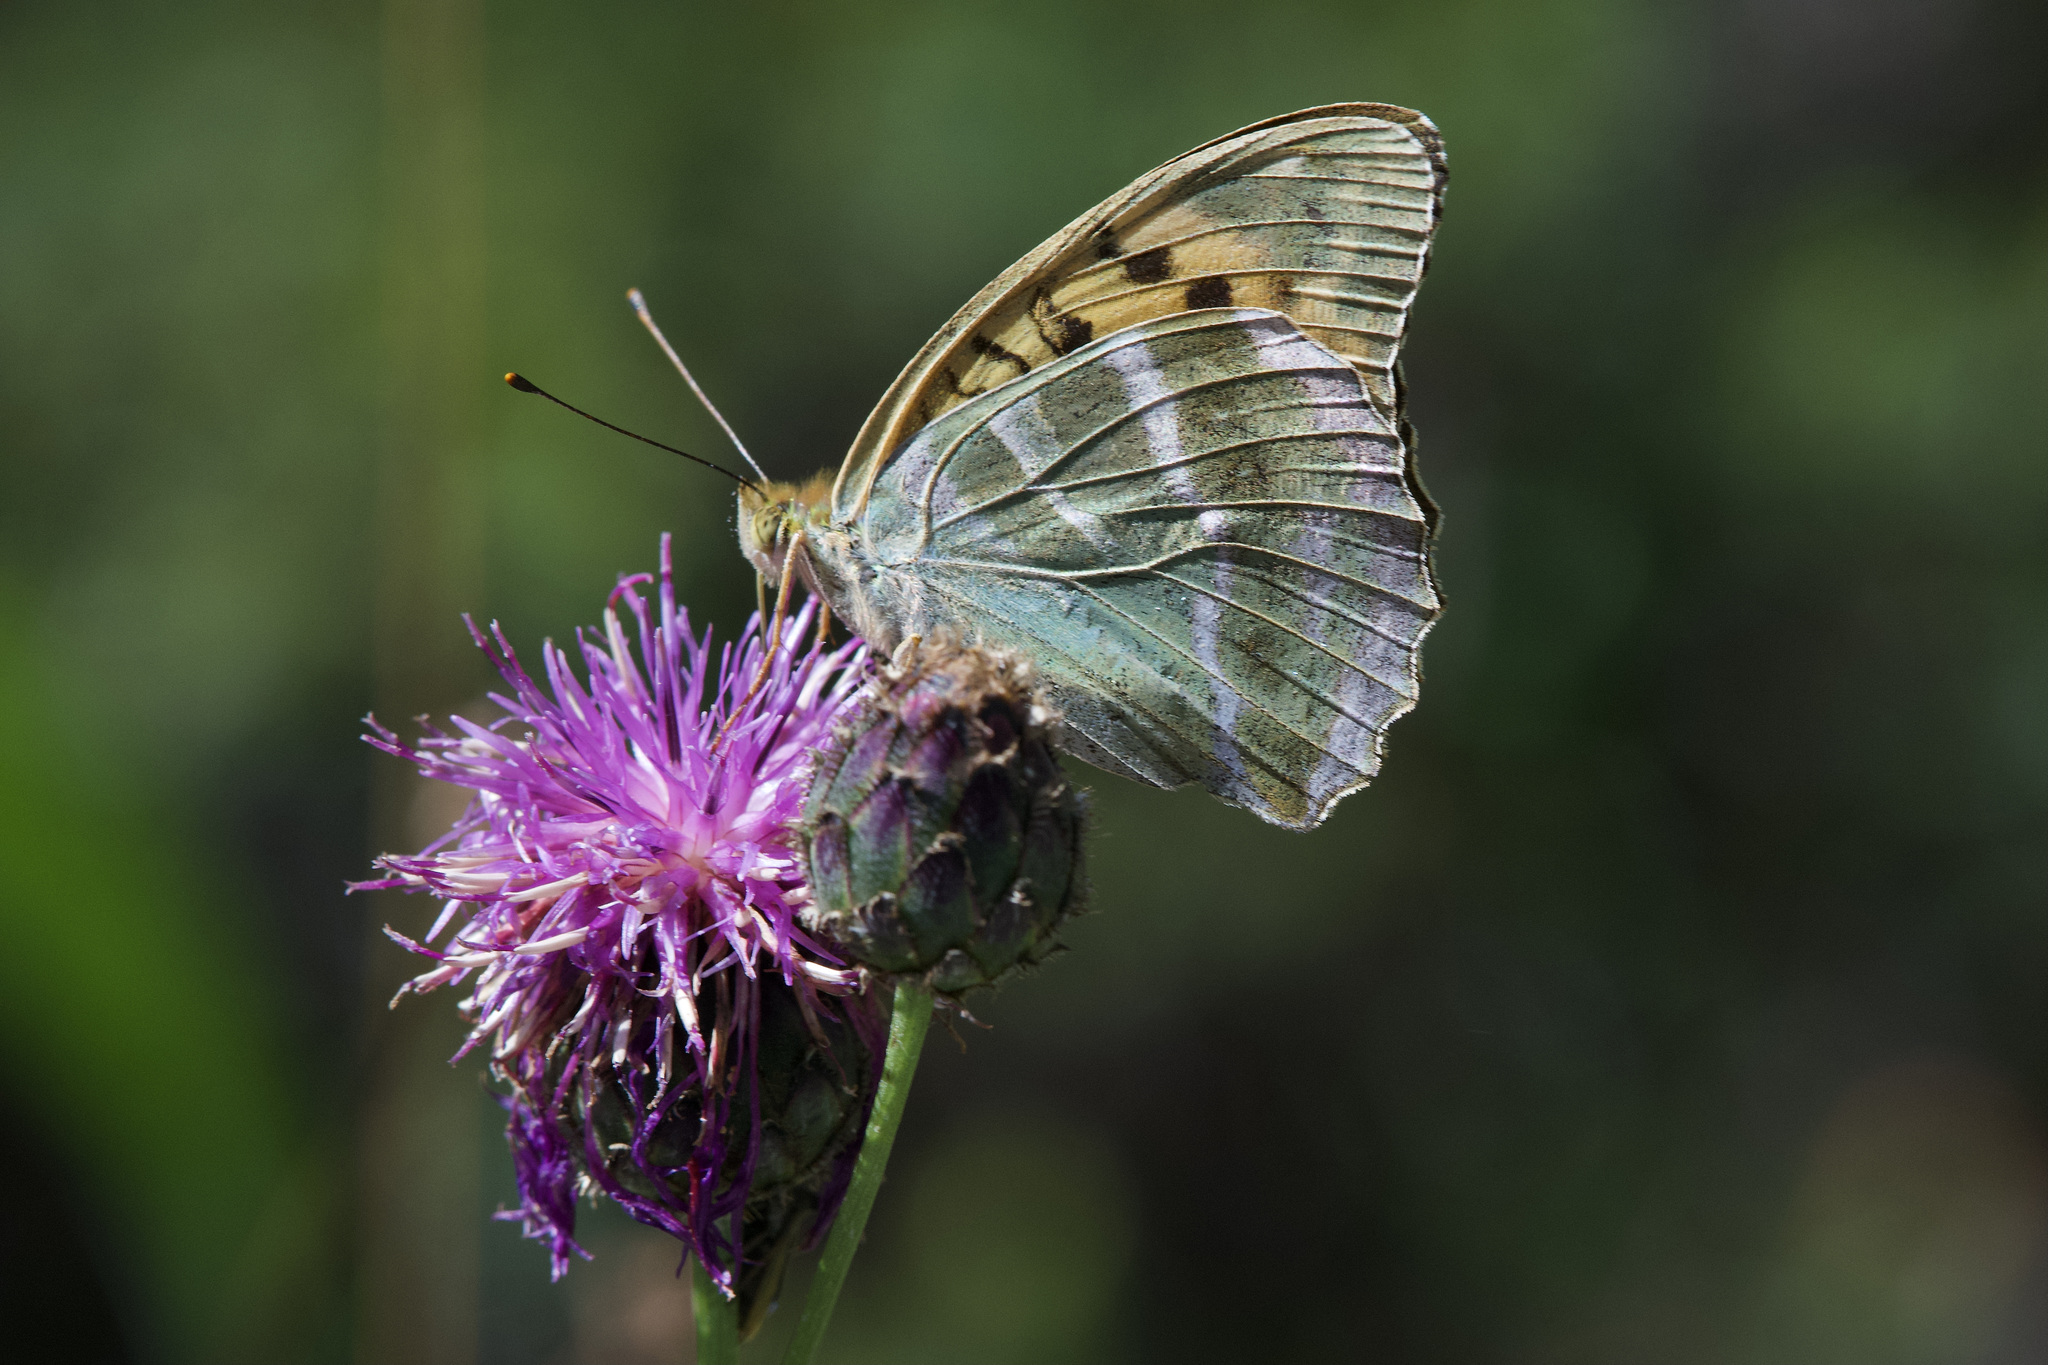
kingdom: Animalia
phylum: Arthropoda
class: Insecta
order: Lepidoptera
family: Nymphalidae
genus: Argynnis
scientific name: Argynnis paphia
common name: Silver-washed fritillary
